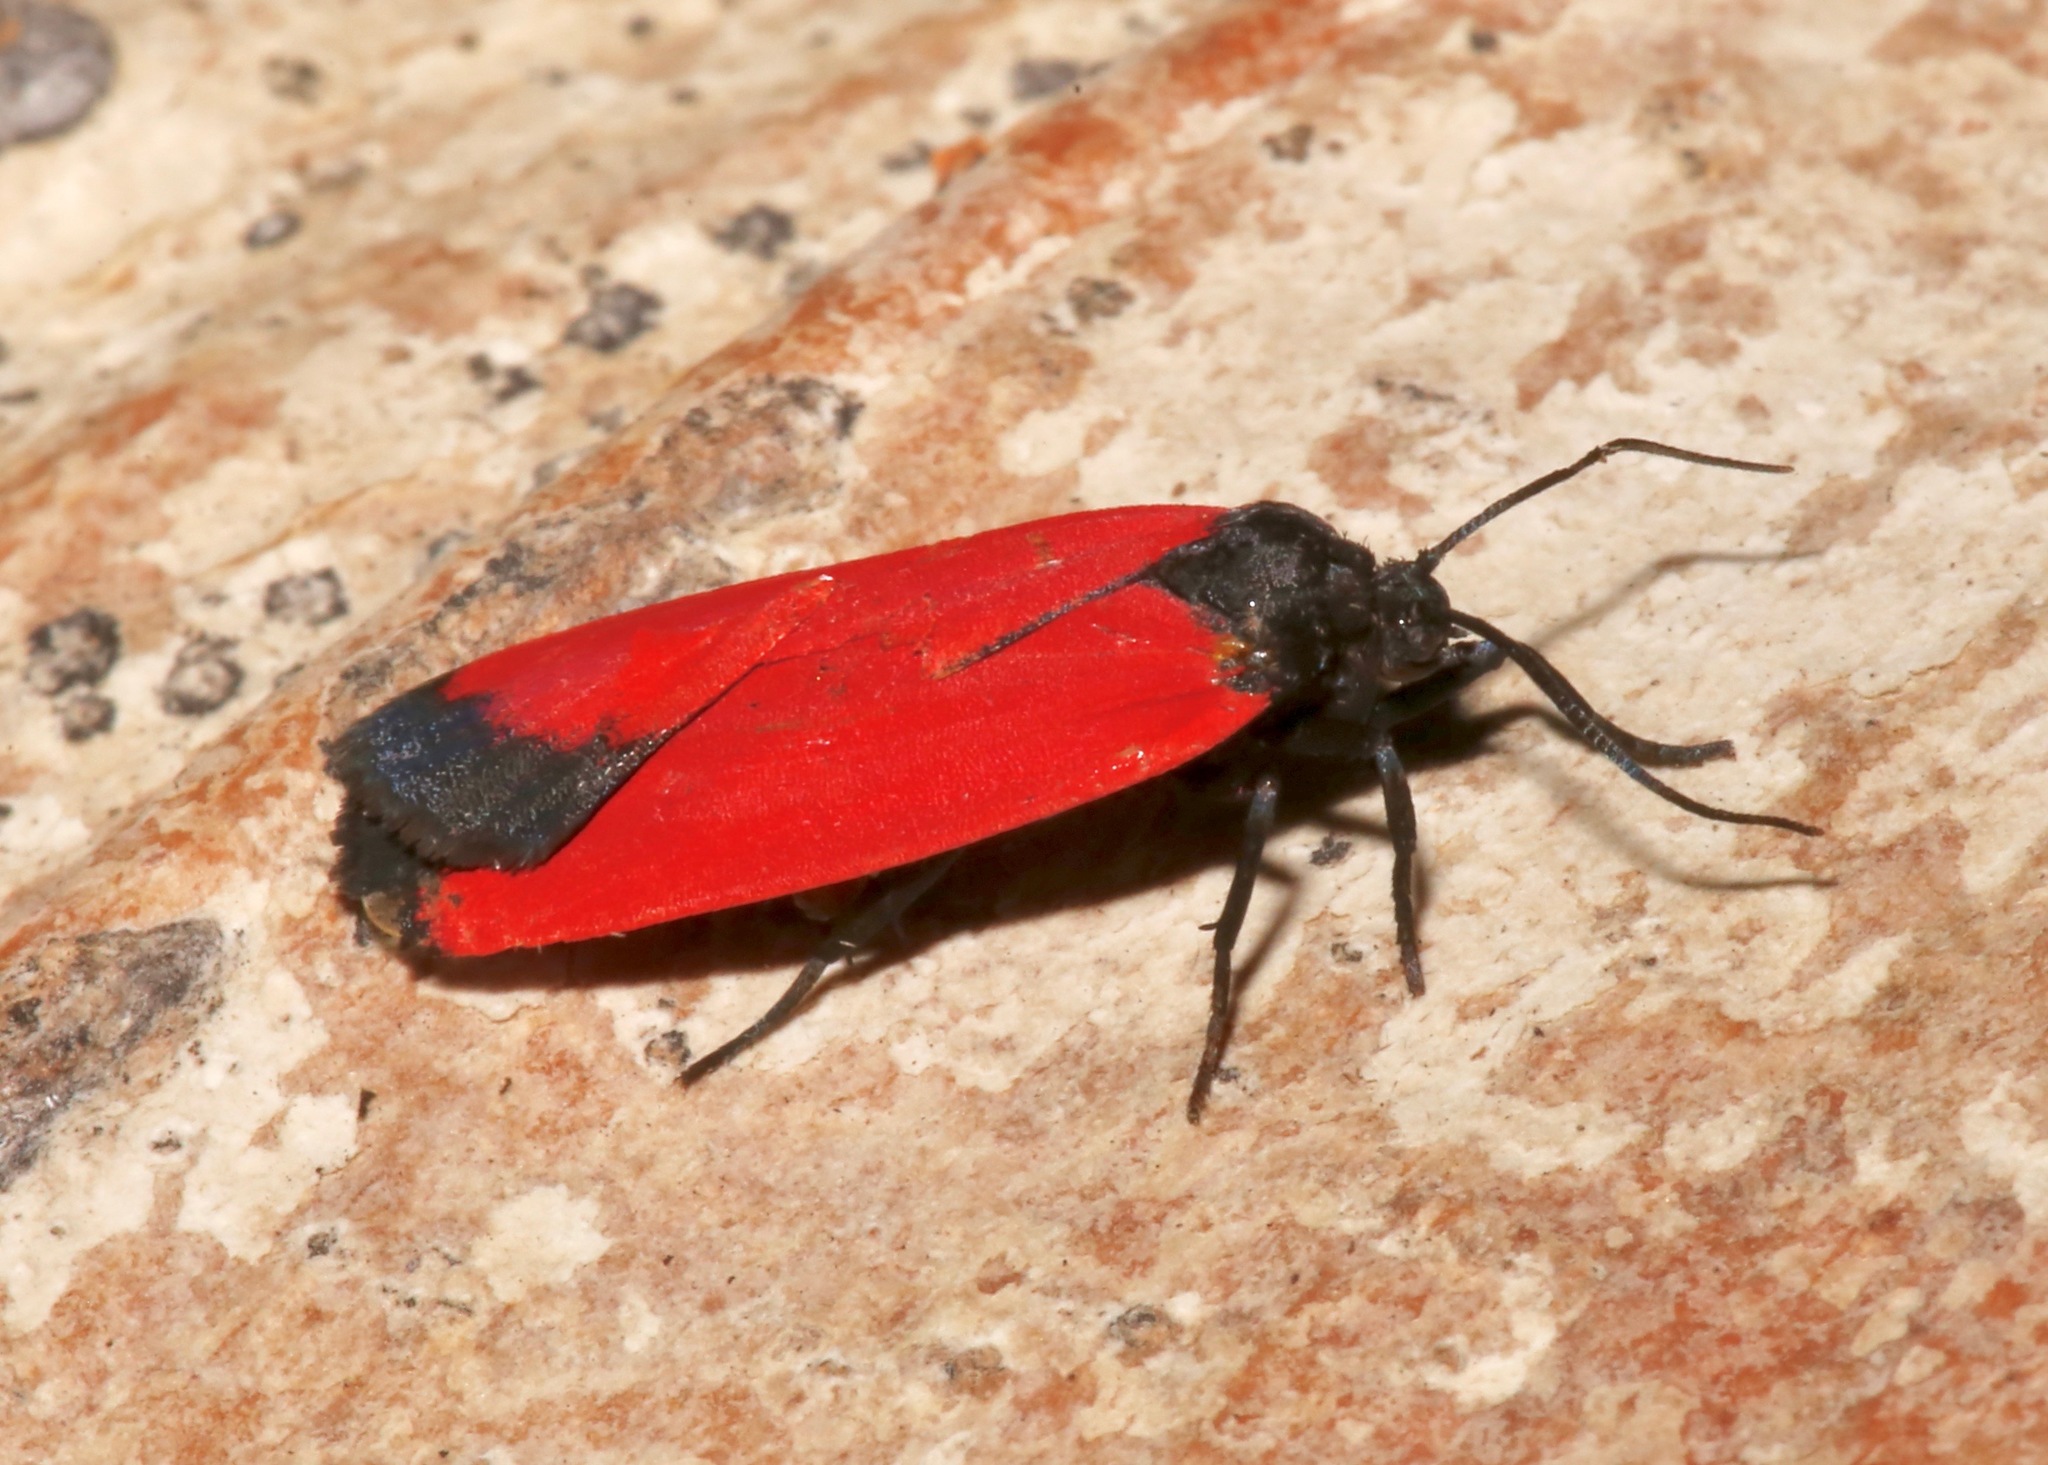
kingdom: Animalia
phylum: Arthropoda
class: Insecta
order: Lepidoptera
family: Erebidae
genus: Ptychoglene
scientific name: Ptychoglene phrada
